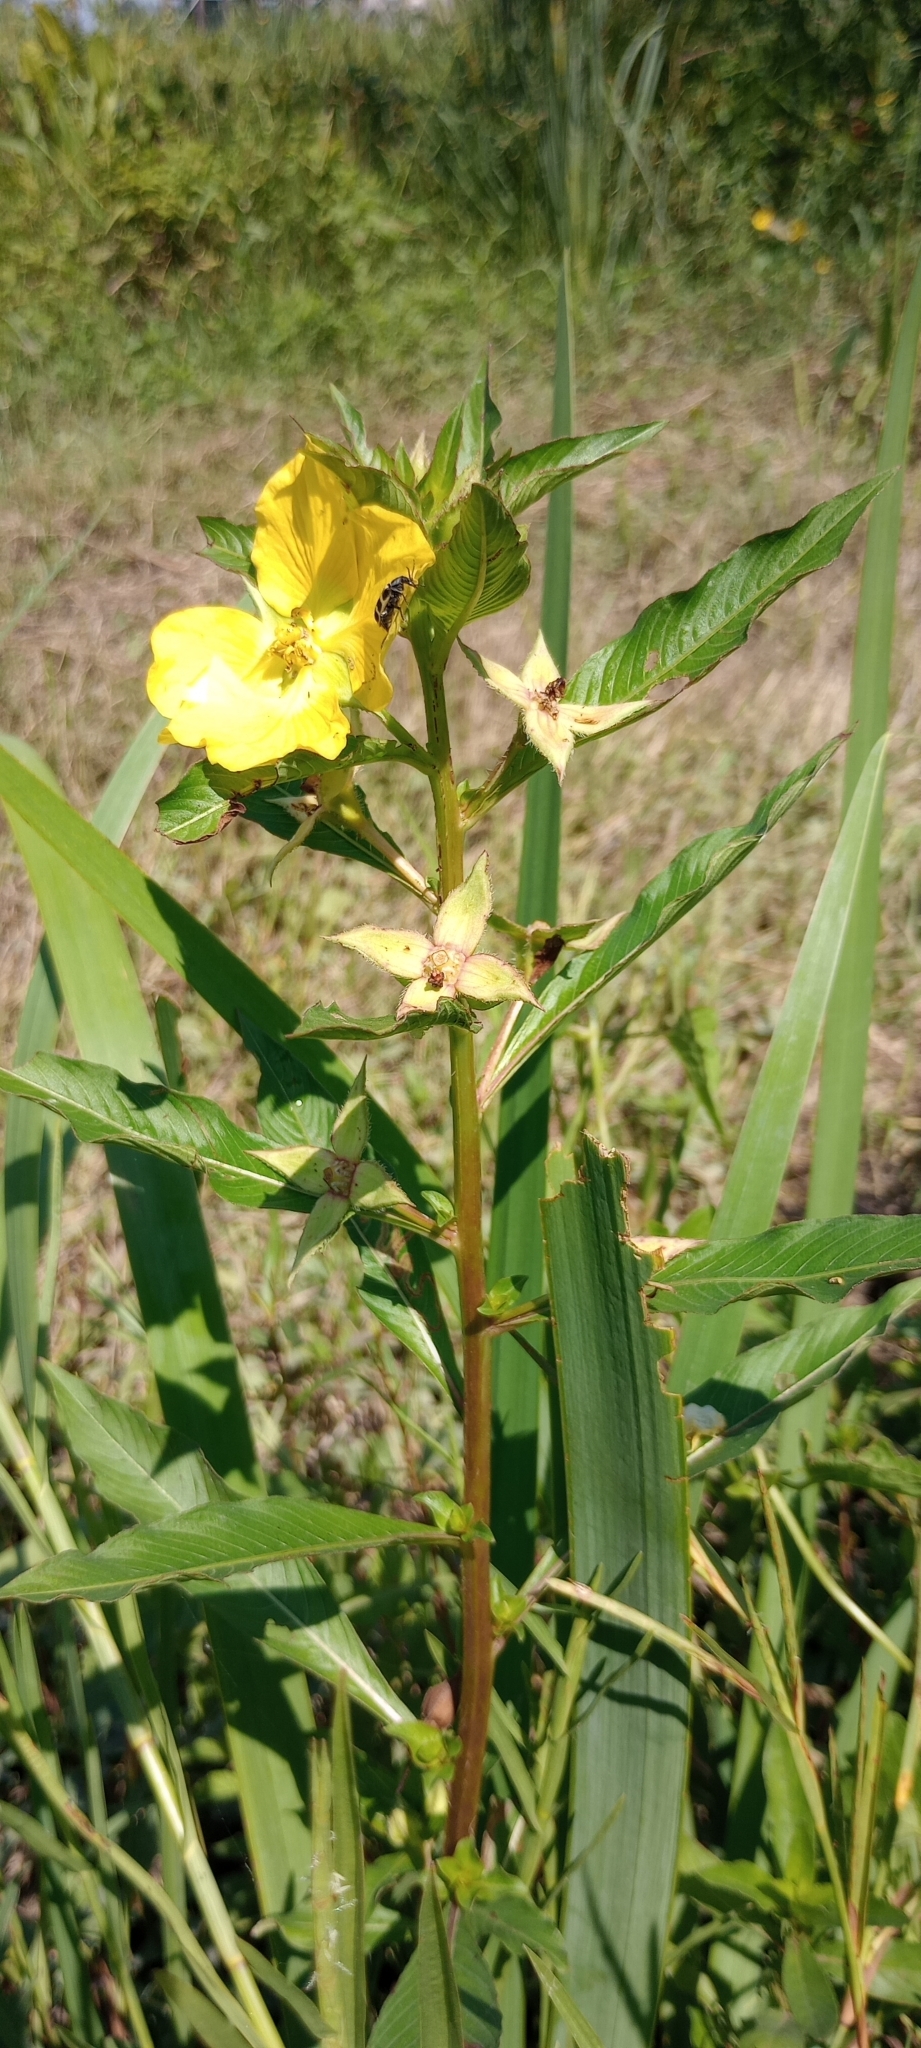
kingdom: Plantae
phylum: Tracheophyta
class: Magnoliopsida
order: Myrtales
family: Onagraceae
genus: Ludwigia
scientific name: Ludwigia elegans
